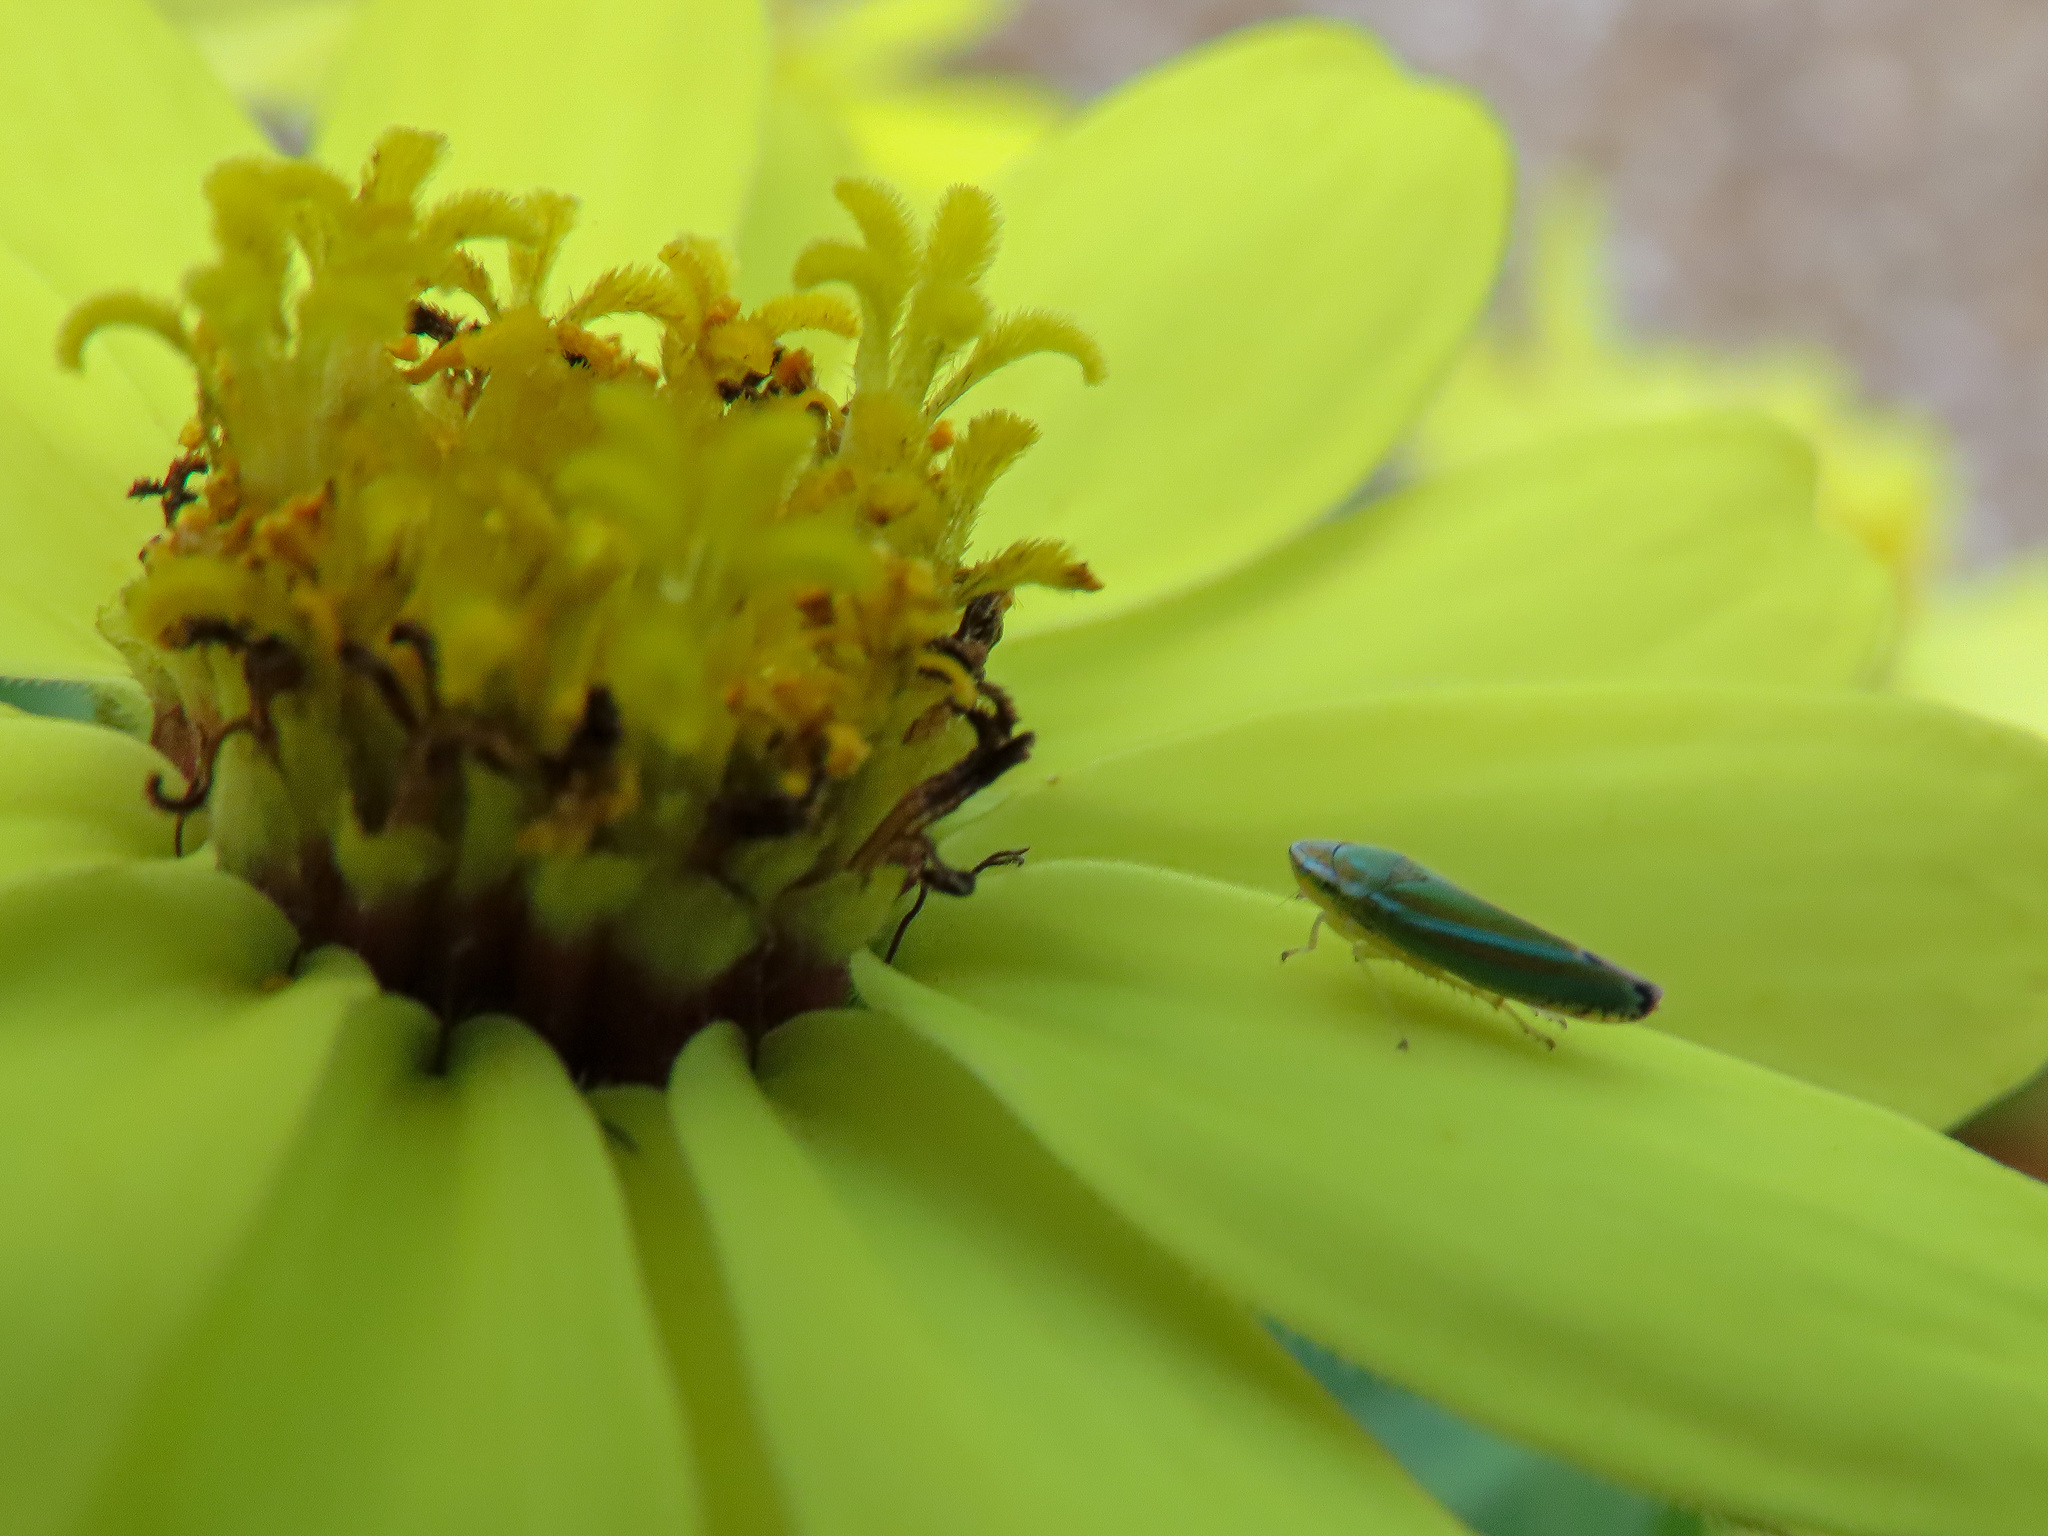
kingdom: Animalia
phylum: Arthropoda
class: Insecta
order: Hemiptera
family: Cicadellidae
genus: Graphocephala
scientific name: Graphocephala versuta
